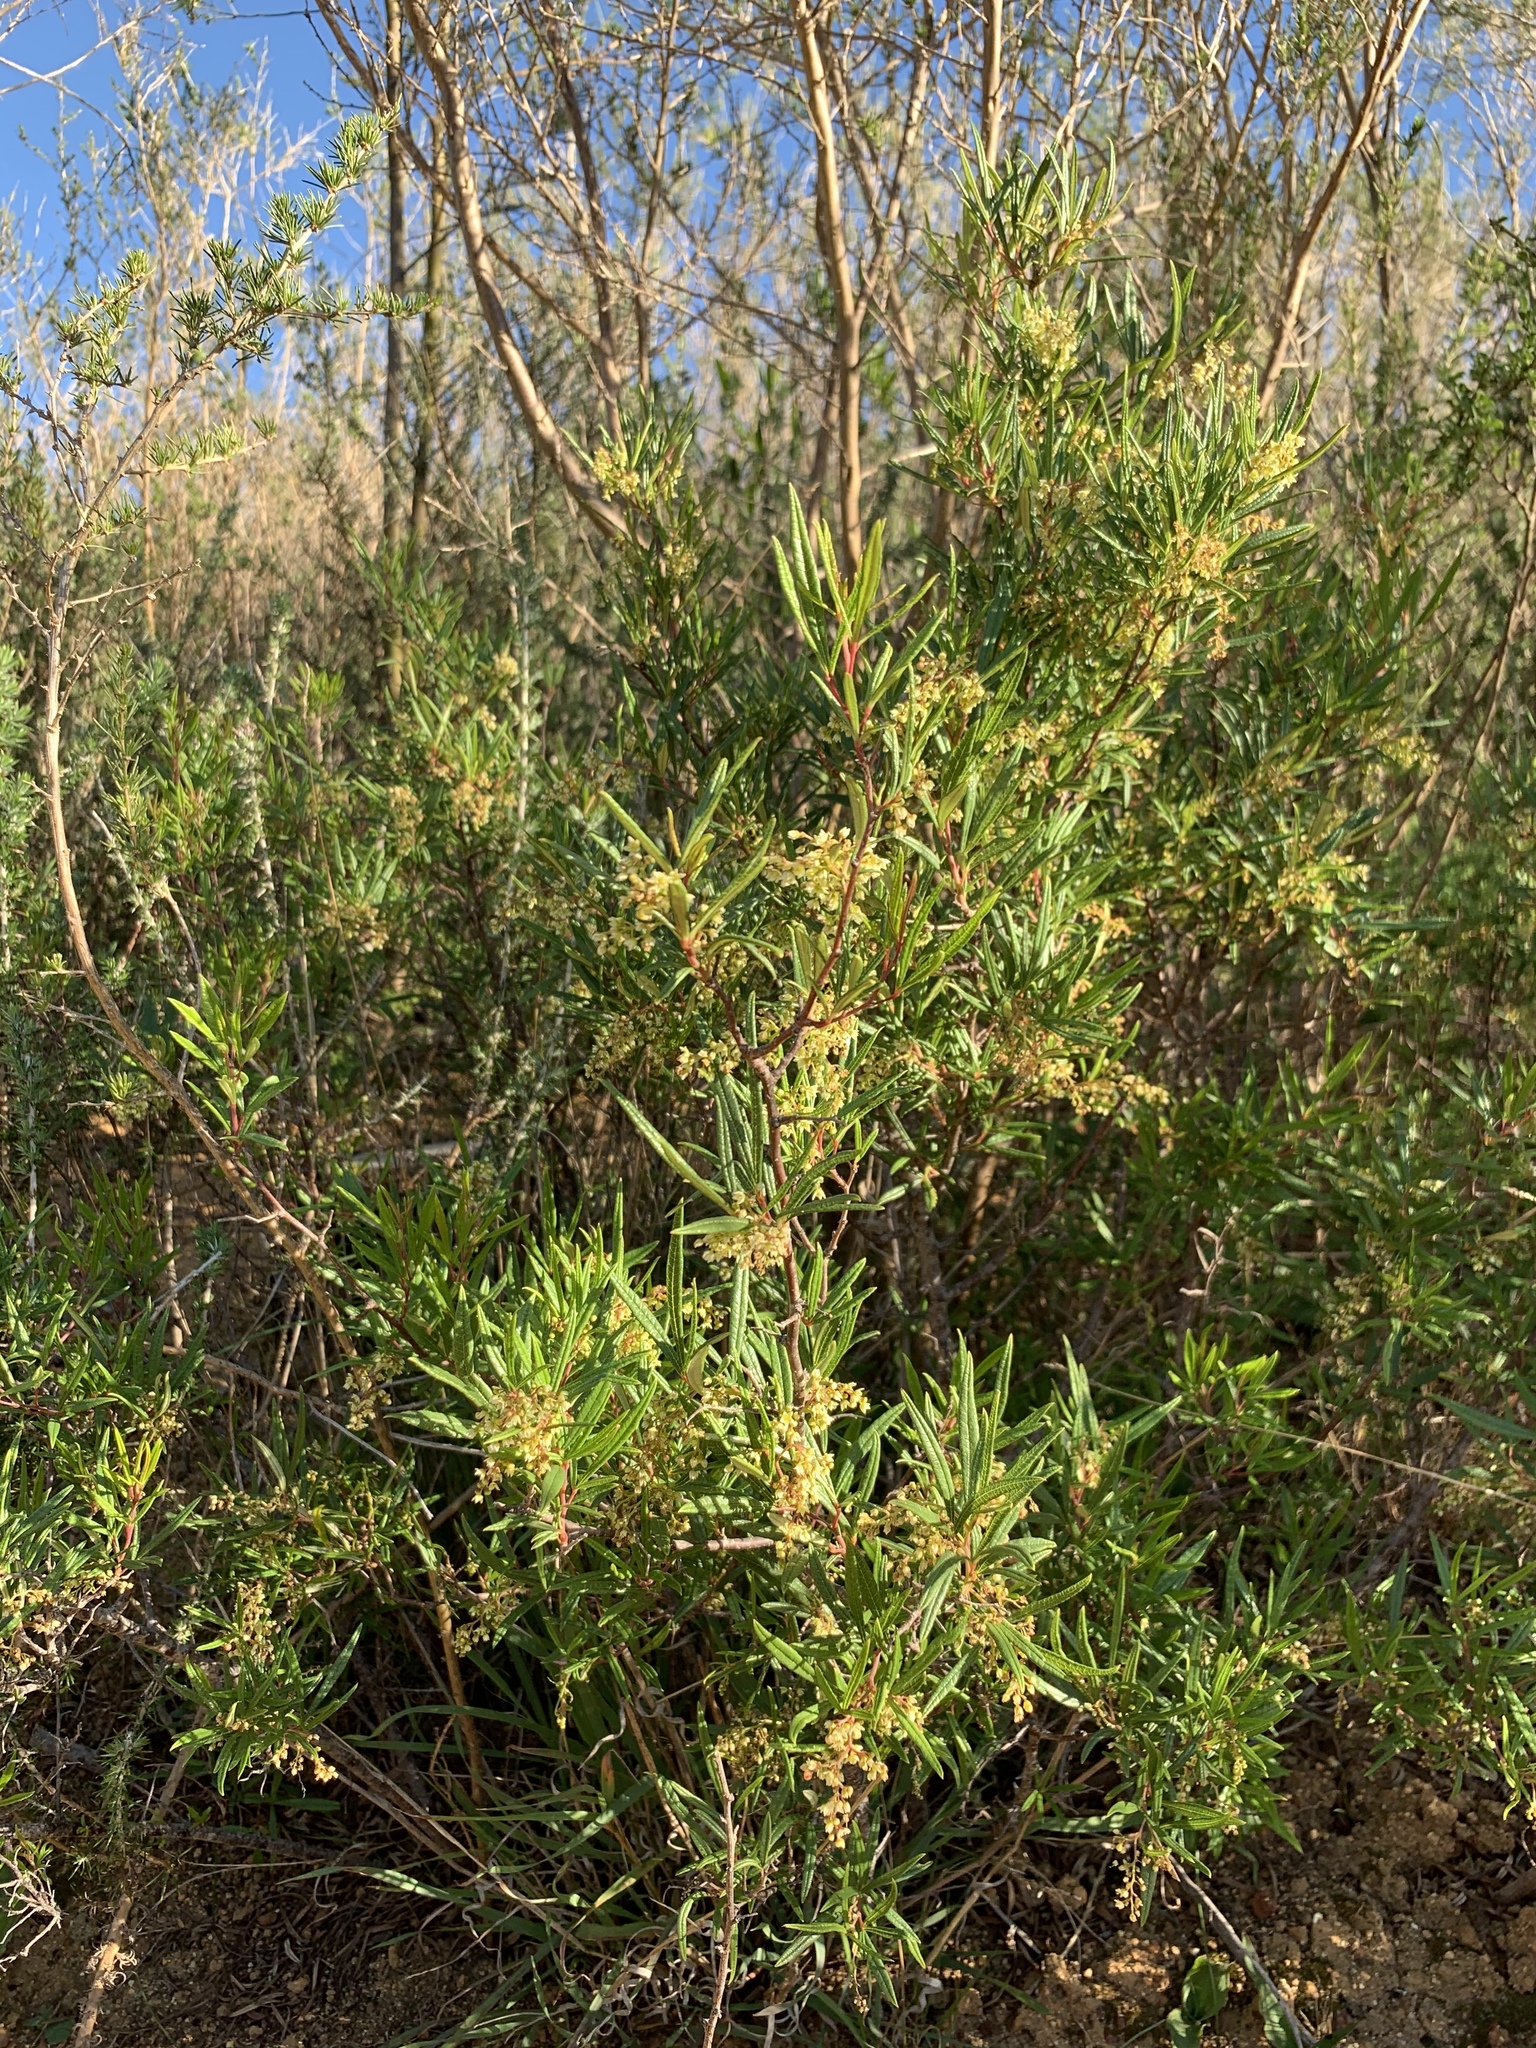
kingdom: Plantae
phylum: Tracheophyta
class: Magnoliopsida
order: Sapindales
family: Anacardiaceae
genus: Searsia
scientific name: Searsia rosmarinifolia
